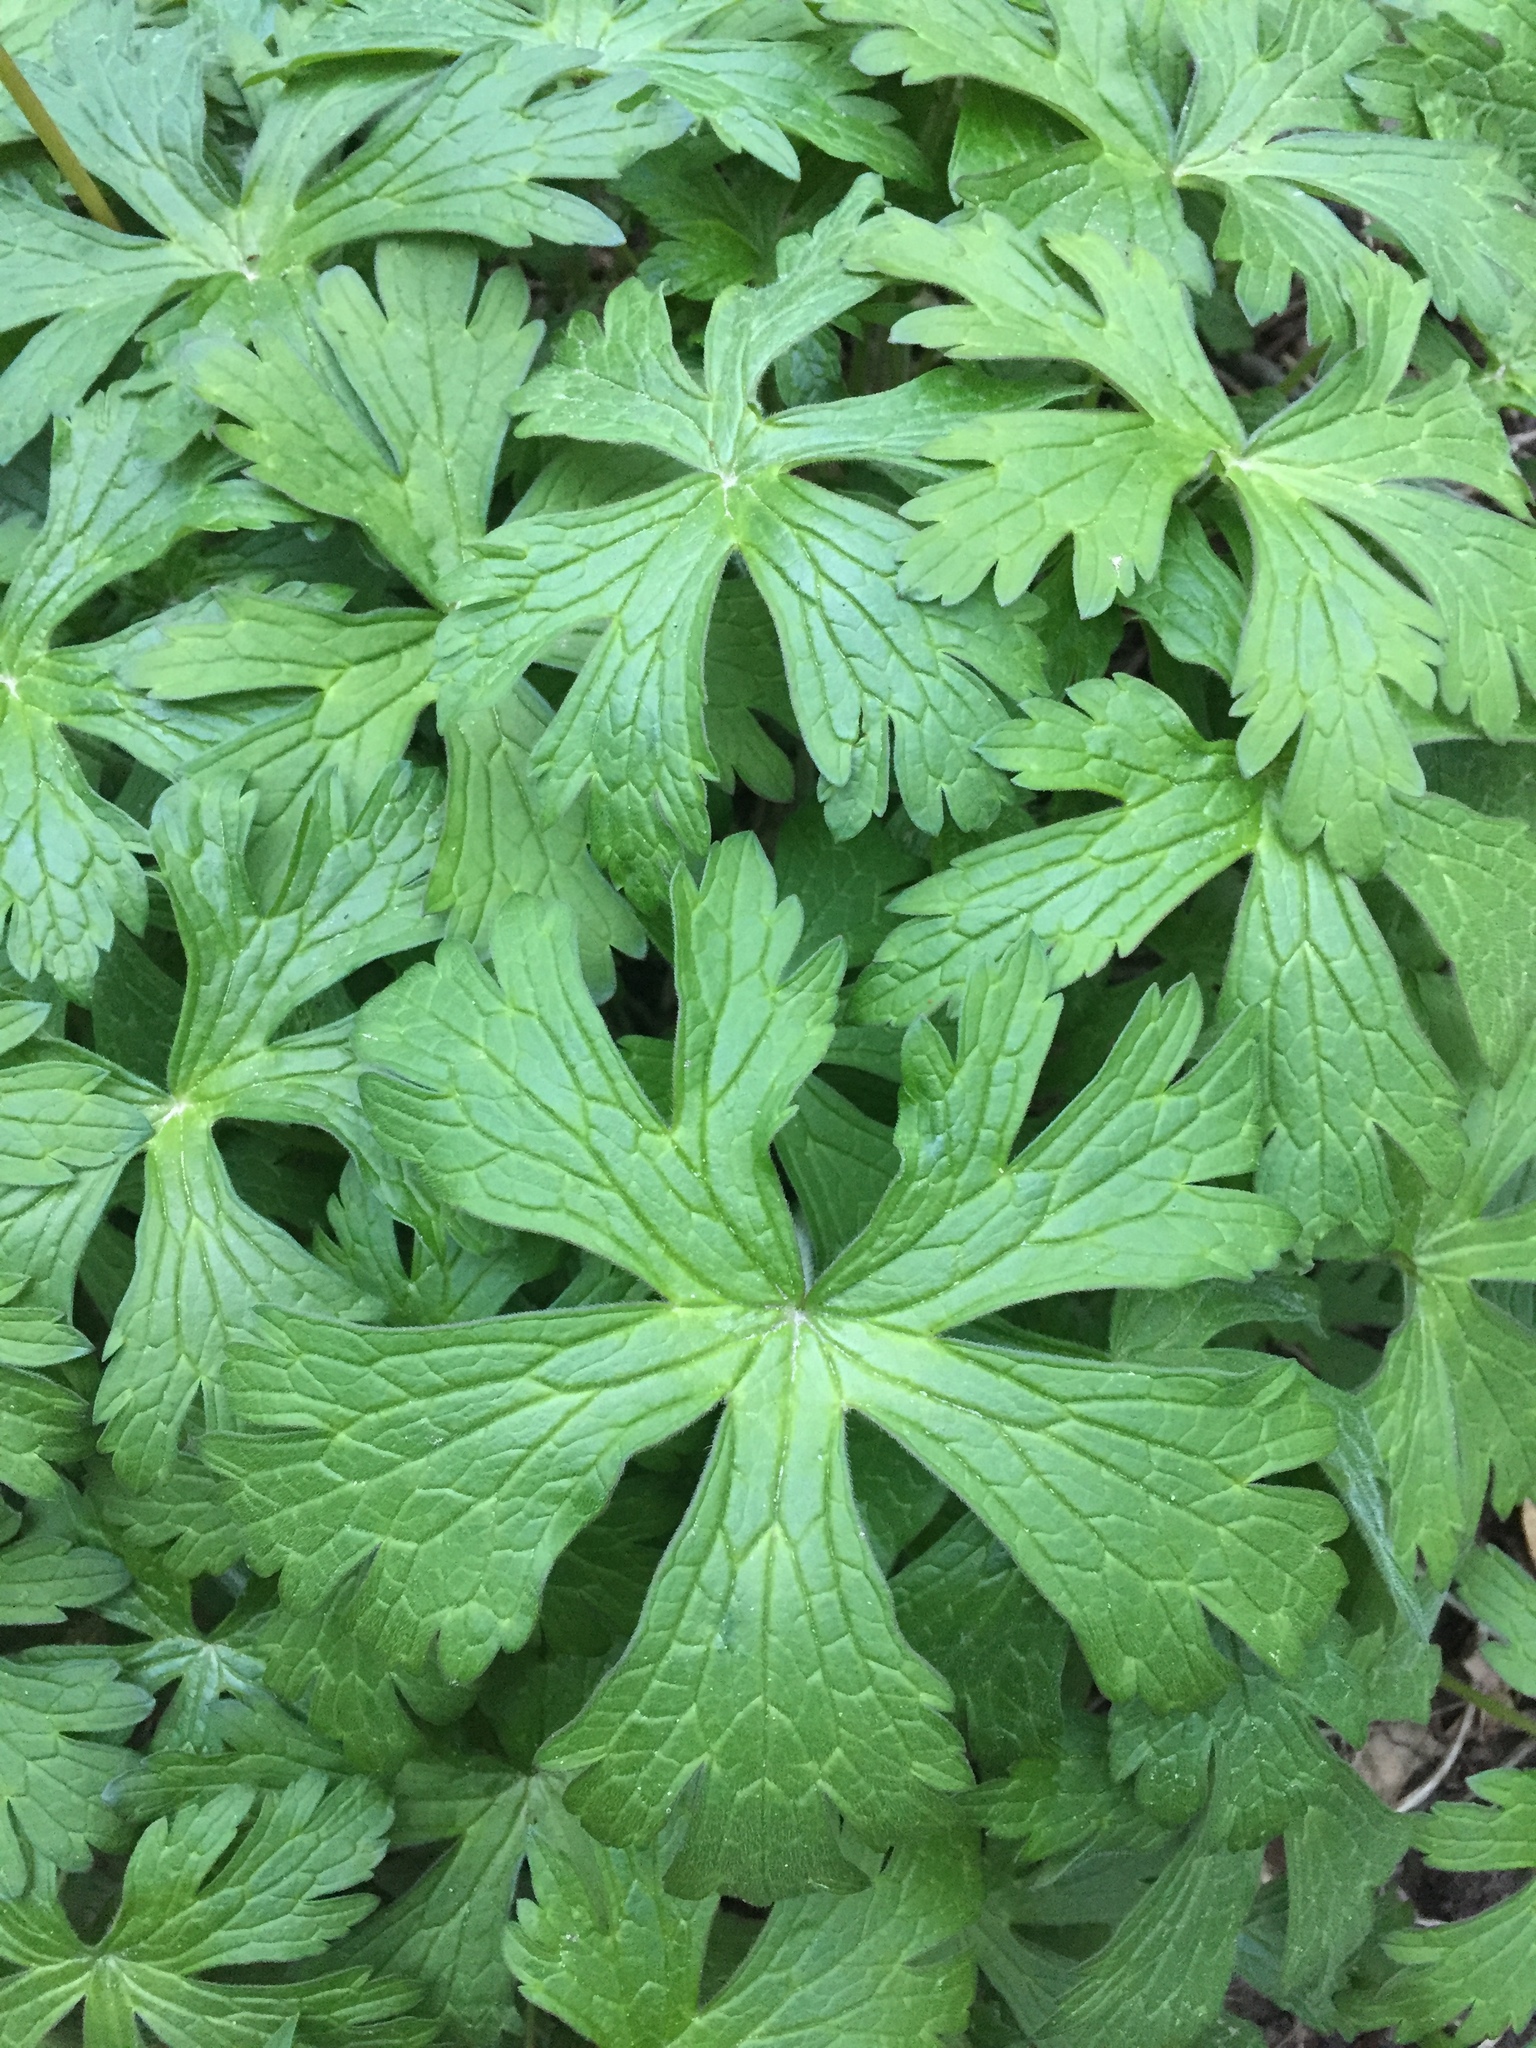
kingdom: Plantae
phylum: Tracheophyta
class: Magnoliopsida
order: Geraniales
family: Geraniaceae
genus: Geranium
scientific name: Geranium maculatum
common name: Spotted geranium
